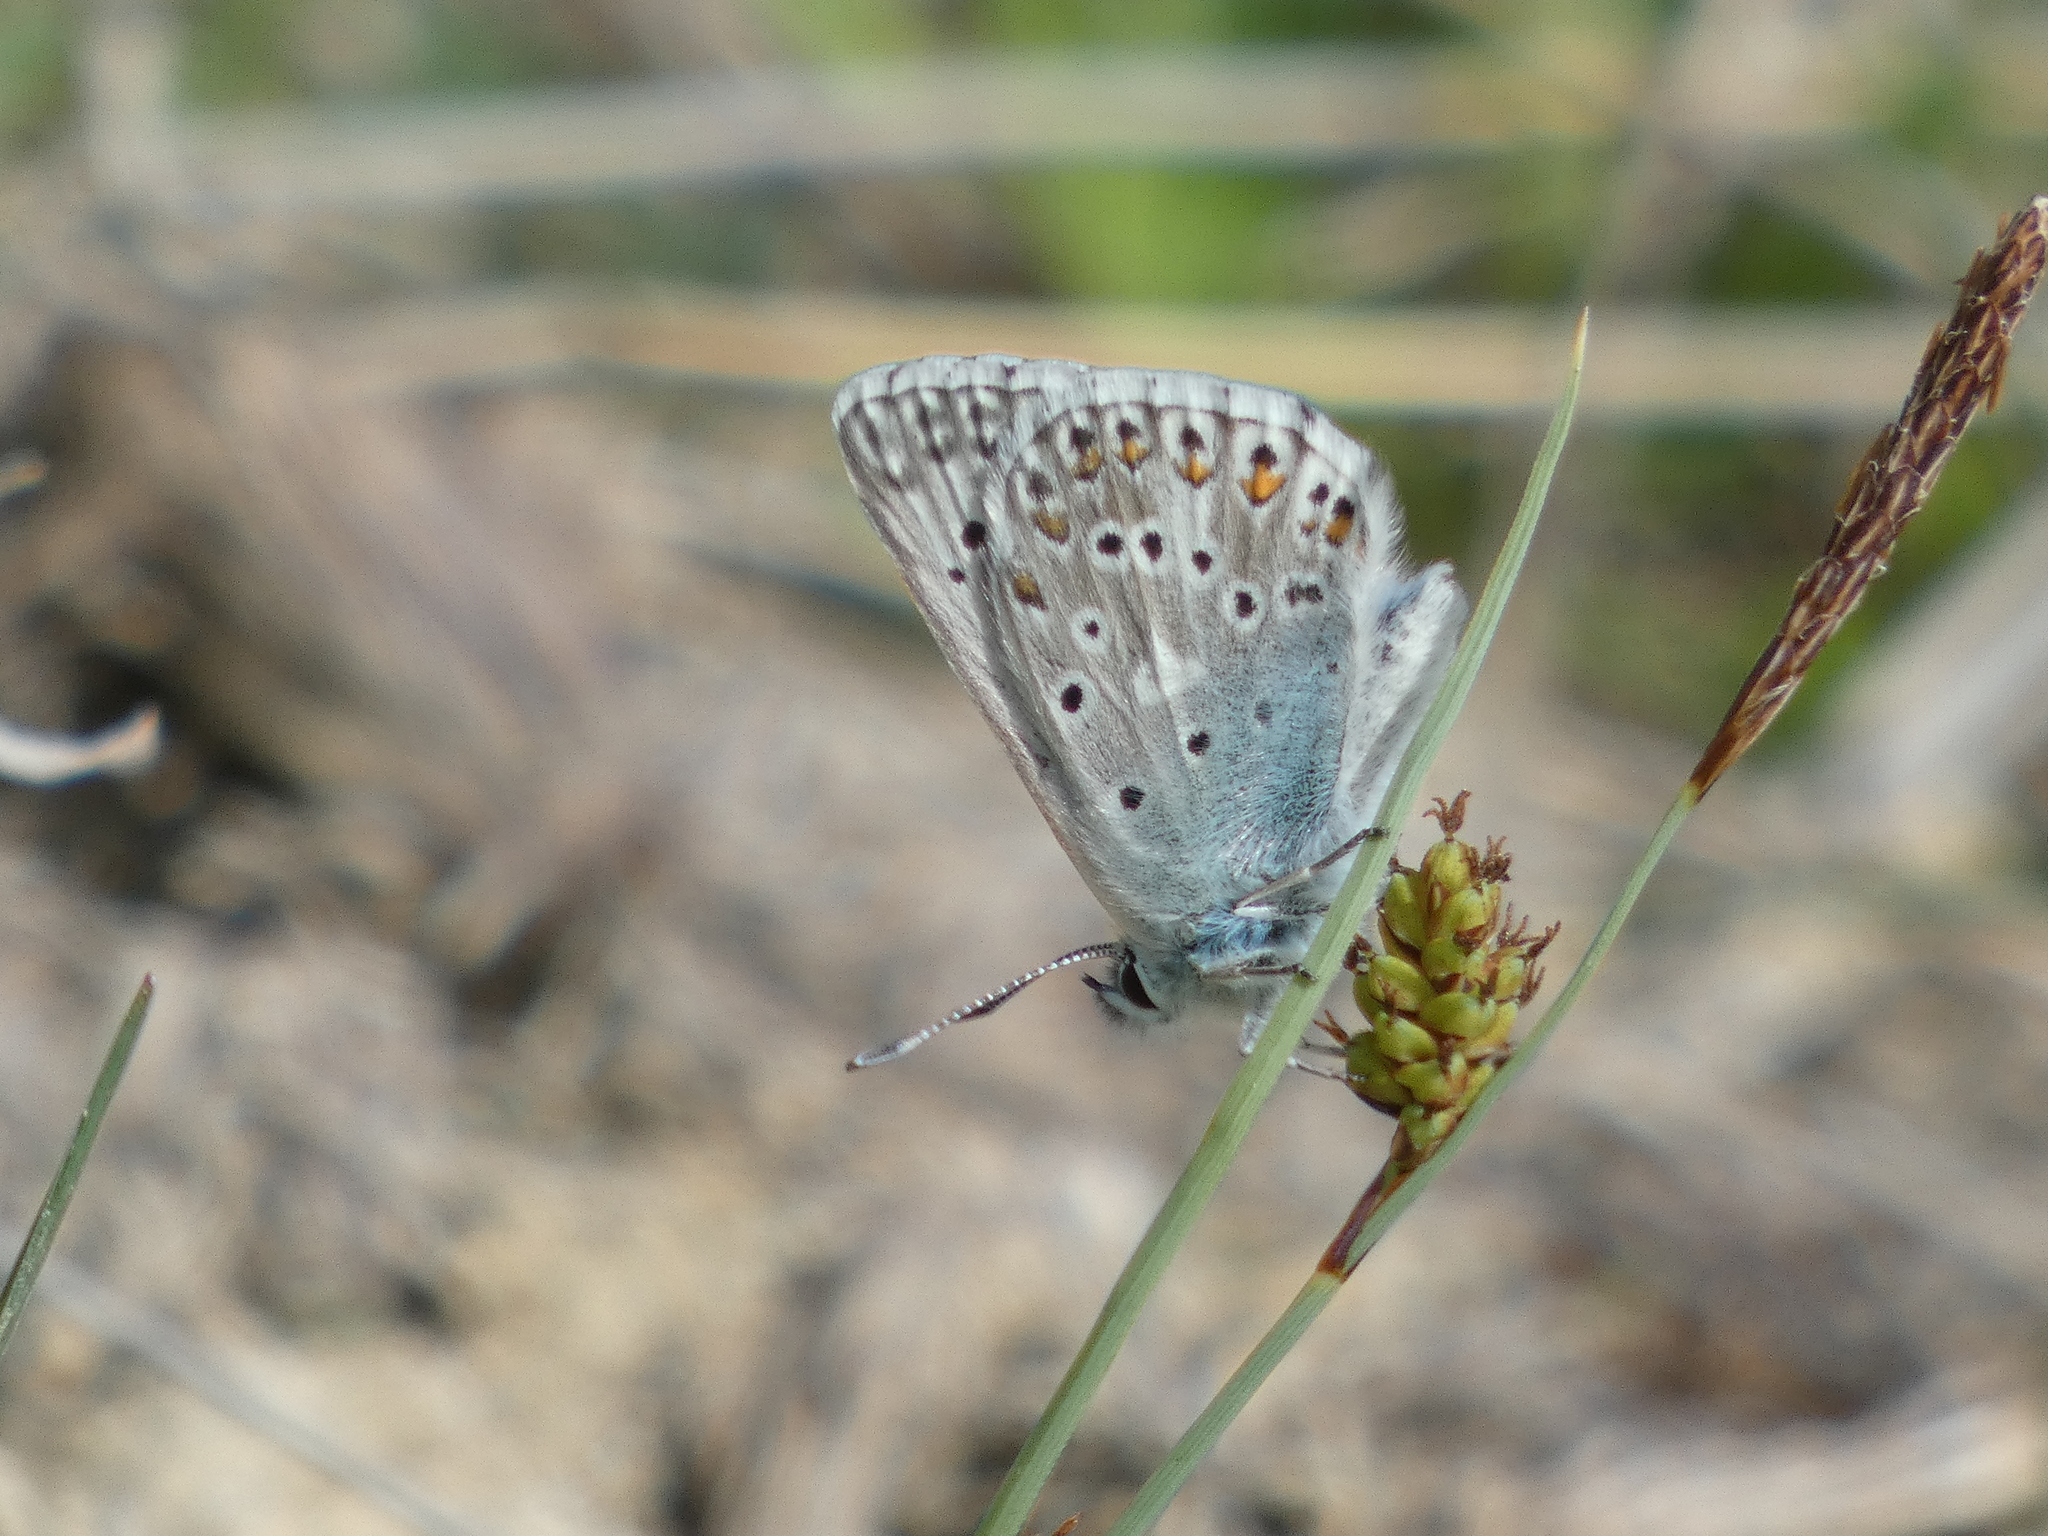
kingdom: Animalia
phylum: Arthropoda
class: Insecta
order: Lepidoptera
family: Lycaenidae
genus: Lysandra
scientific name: Lysandra hispana
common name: Provence chalkhill blue
